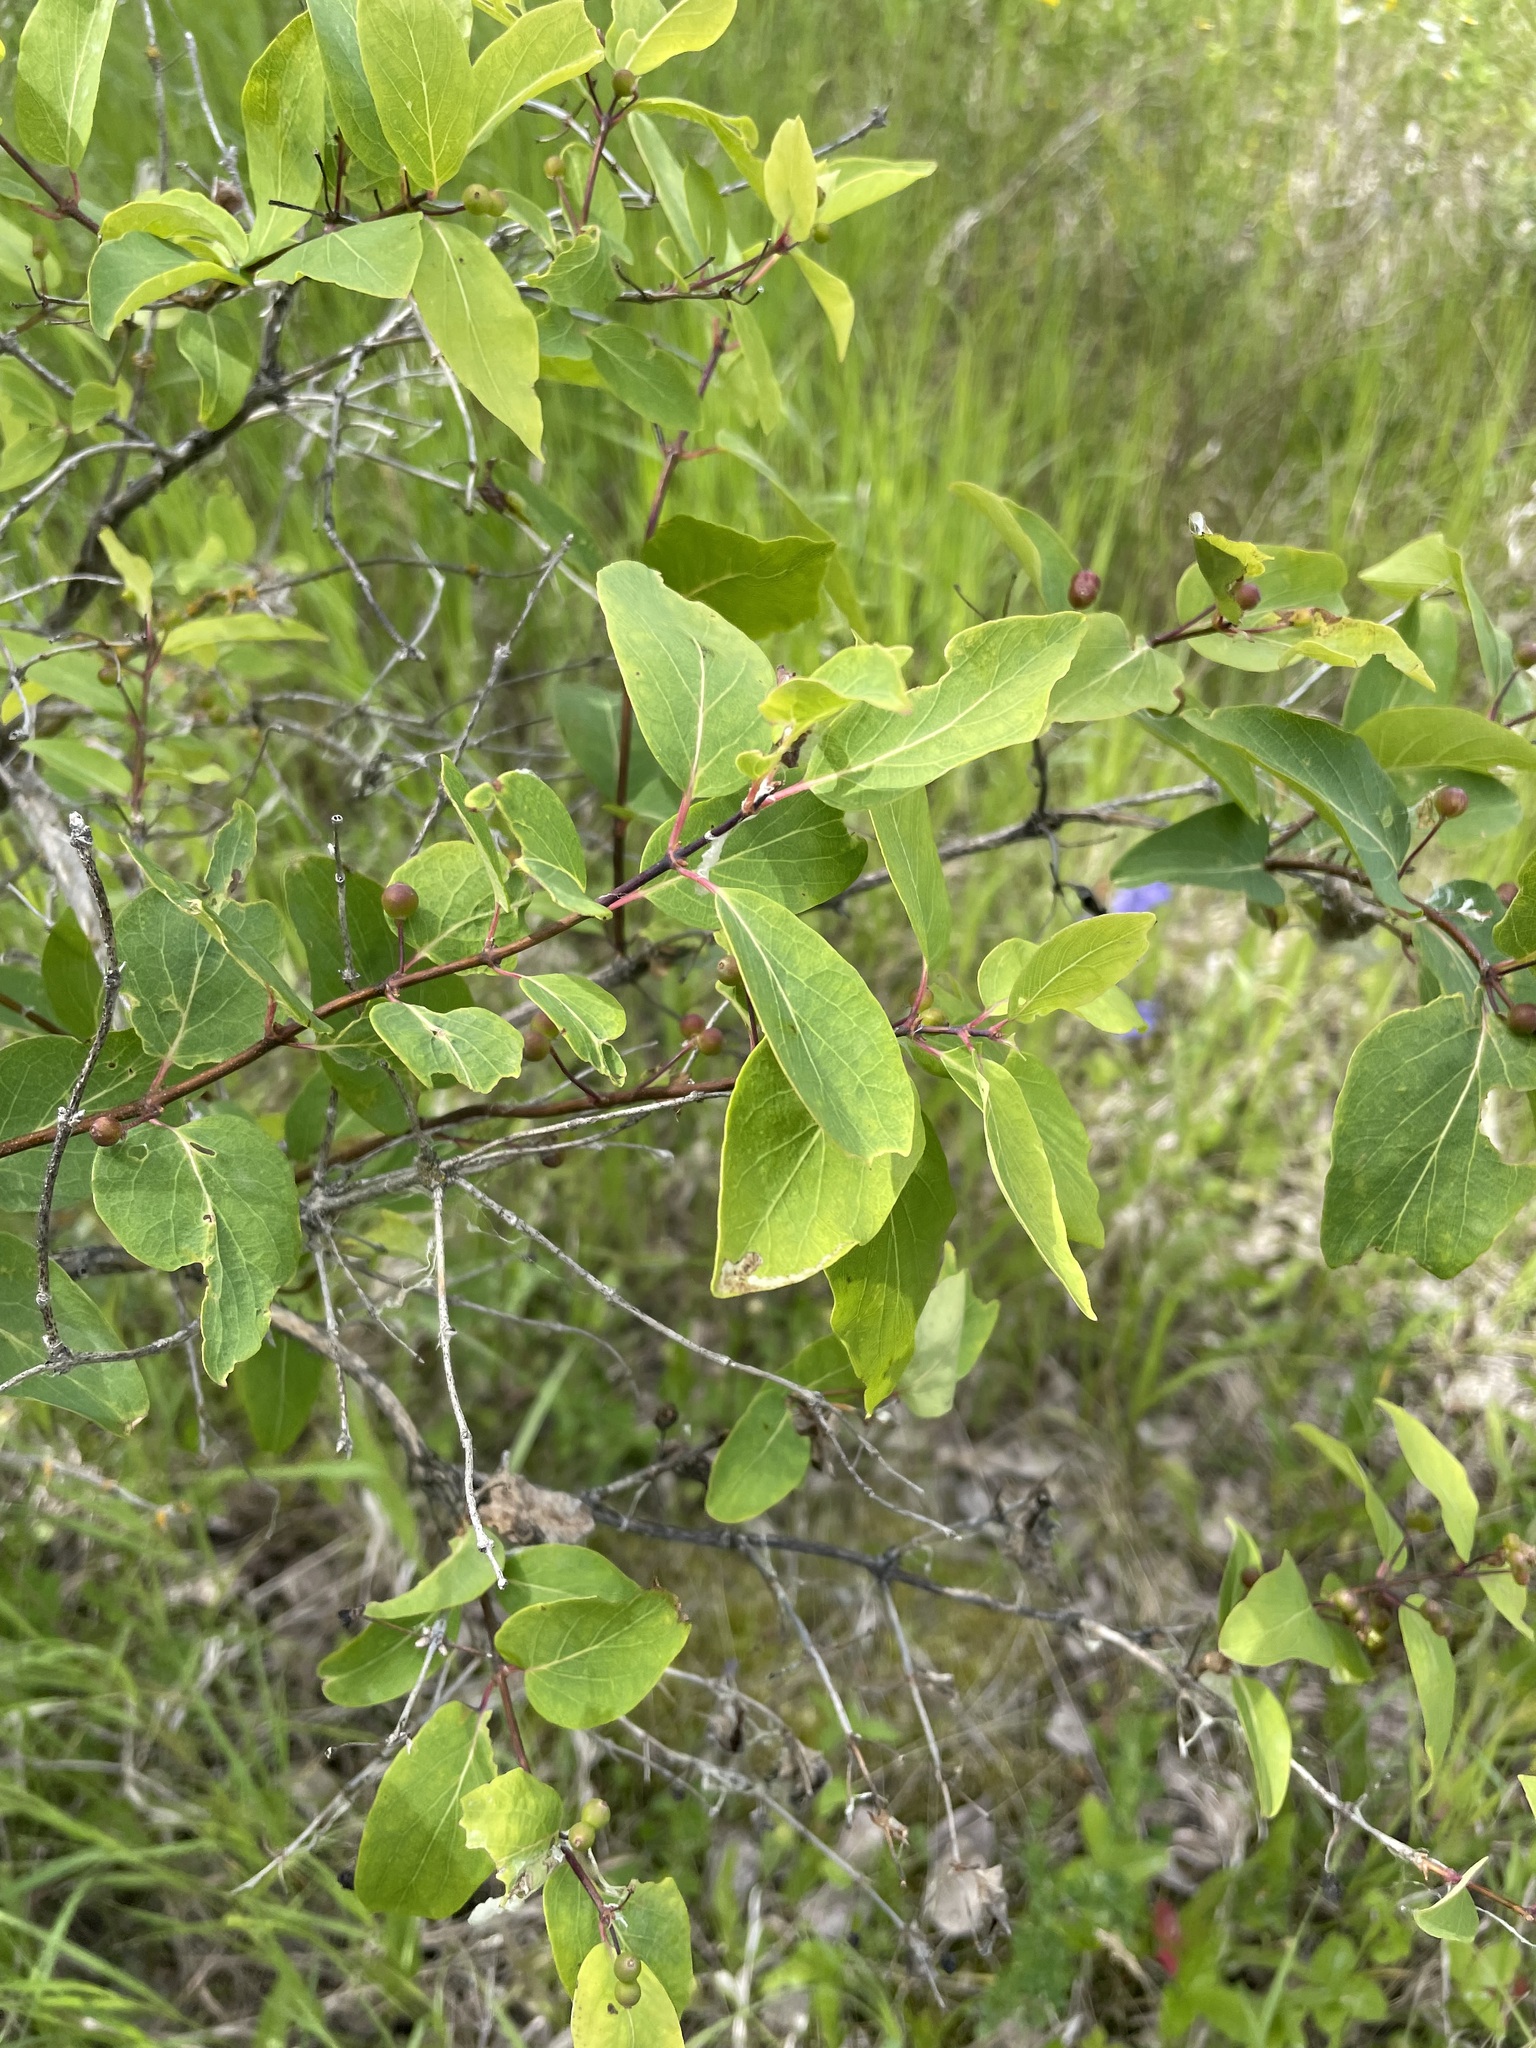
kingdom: Plantae
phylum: Tracheophyta
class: Magnoliopsida
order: Dipsacales
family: Caprifoliaceae
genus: Lonicera
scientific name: Lonicera tatarica
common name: Tatarian honeysuckle
